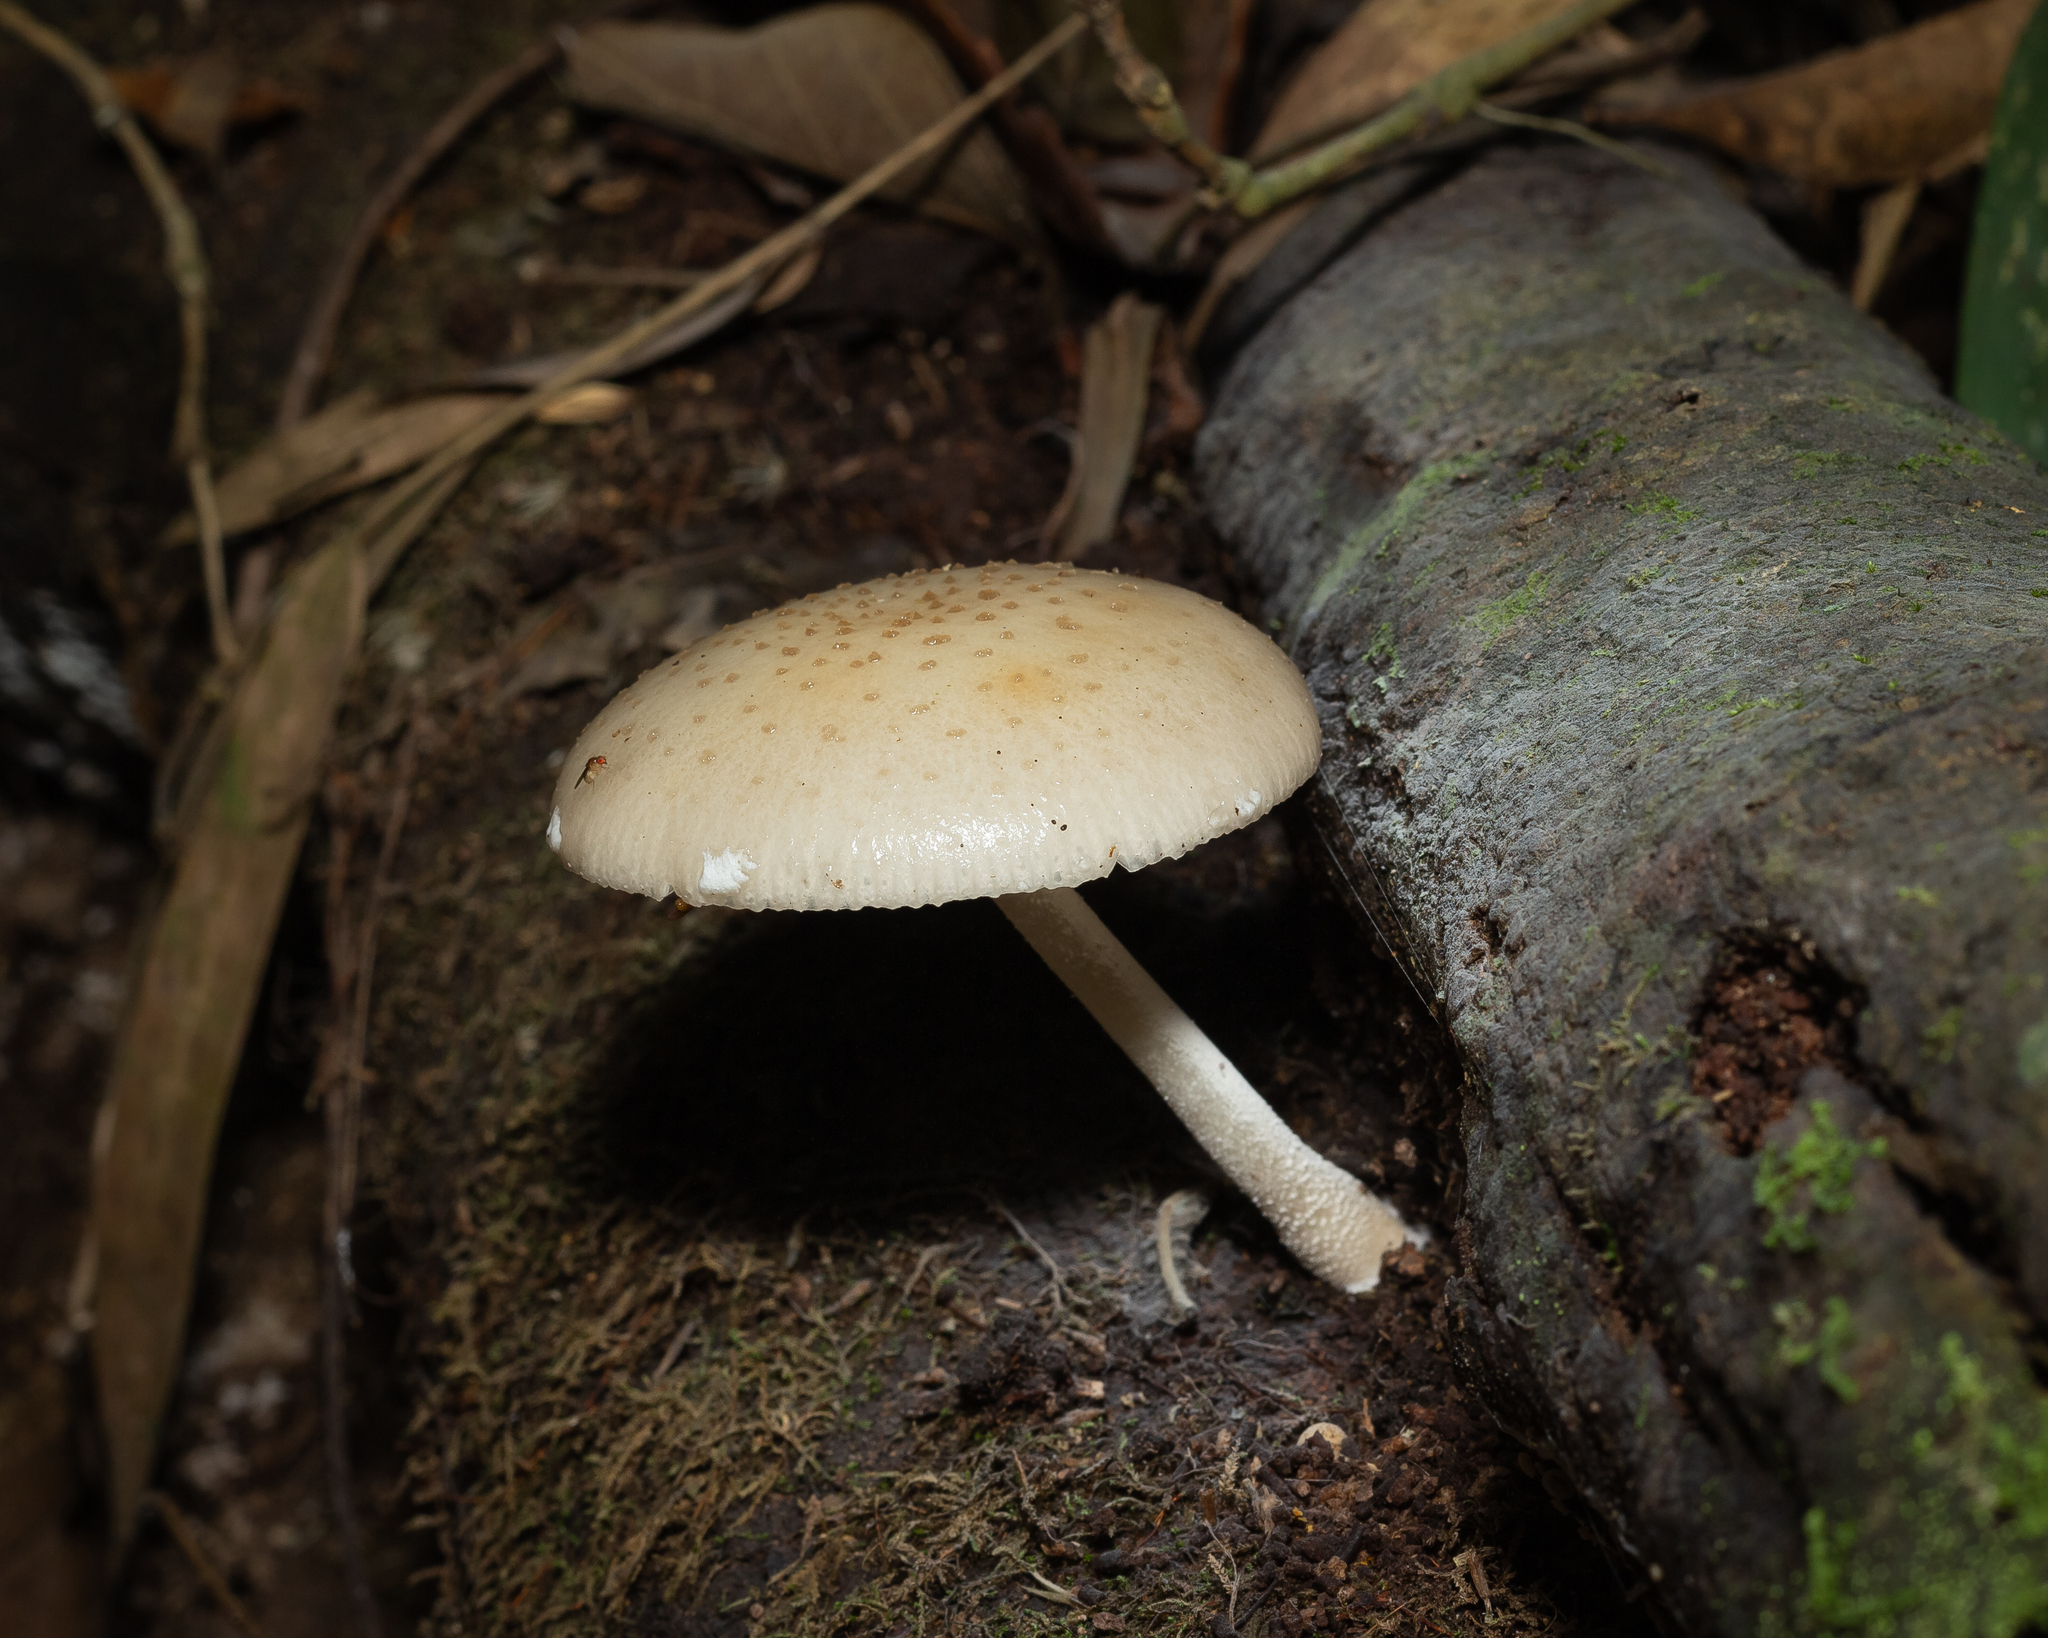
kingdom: Fungi
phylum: Basidiomycota
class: Agaricomycetes
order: Agaricales
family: Physalacriaceae
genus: Oudemansiella
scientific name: Oudemansiella cubensis
